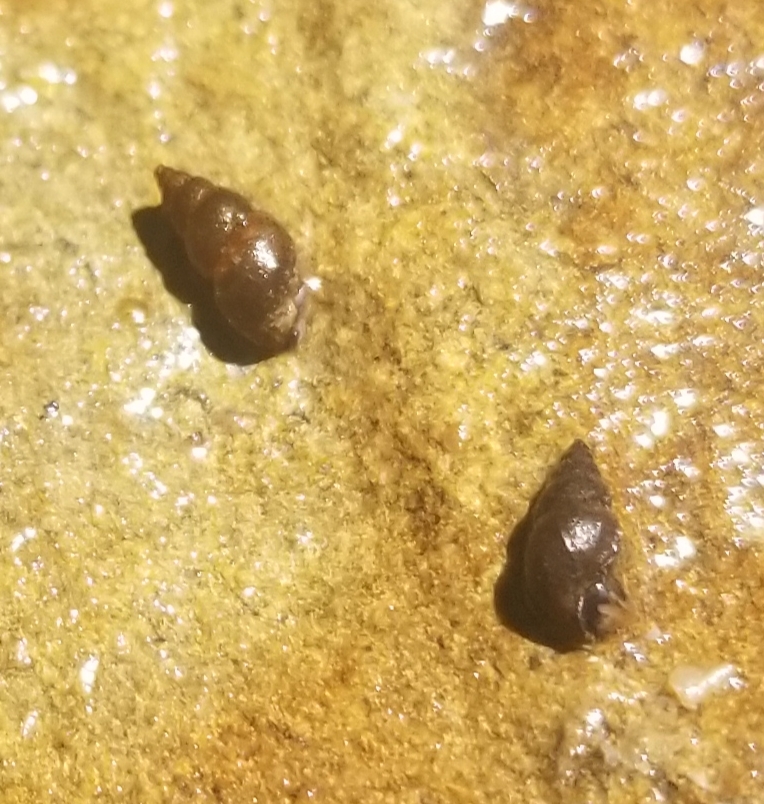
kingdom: Animalia
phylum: Mollusca
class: Gastropoda
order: Littorinimorpha
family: Tateidae
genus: Potamopyrgus
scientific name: Potamopyrgus antipodarum
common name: Jenkins' spire snail
